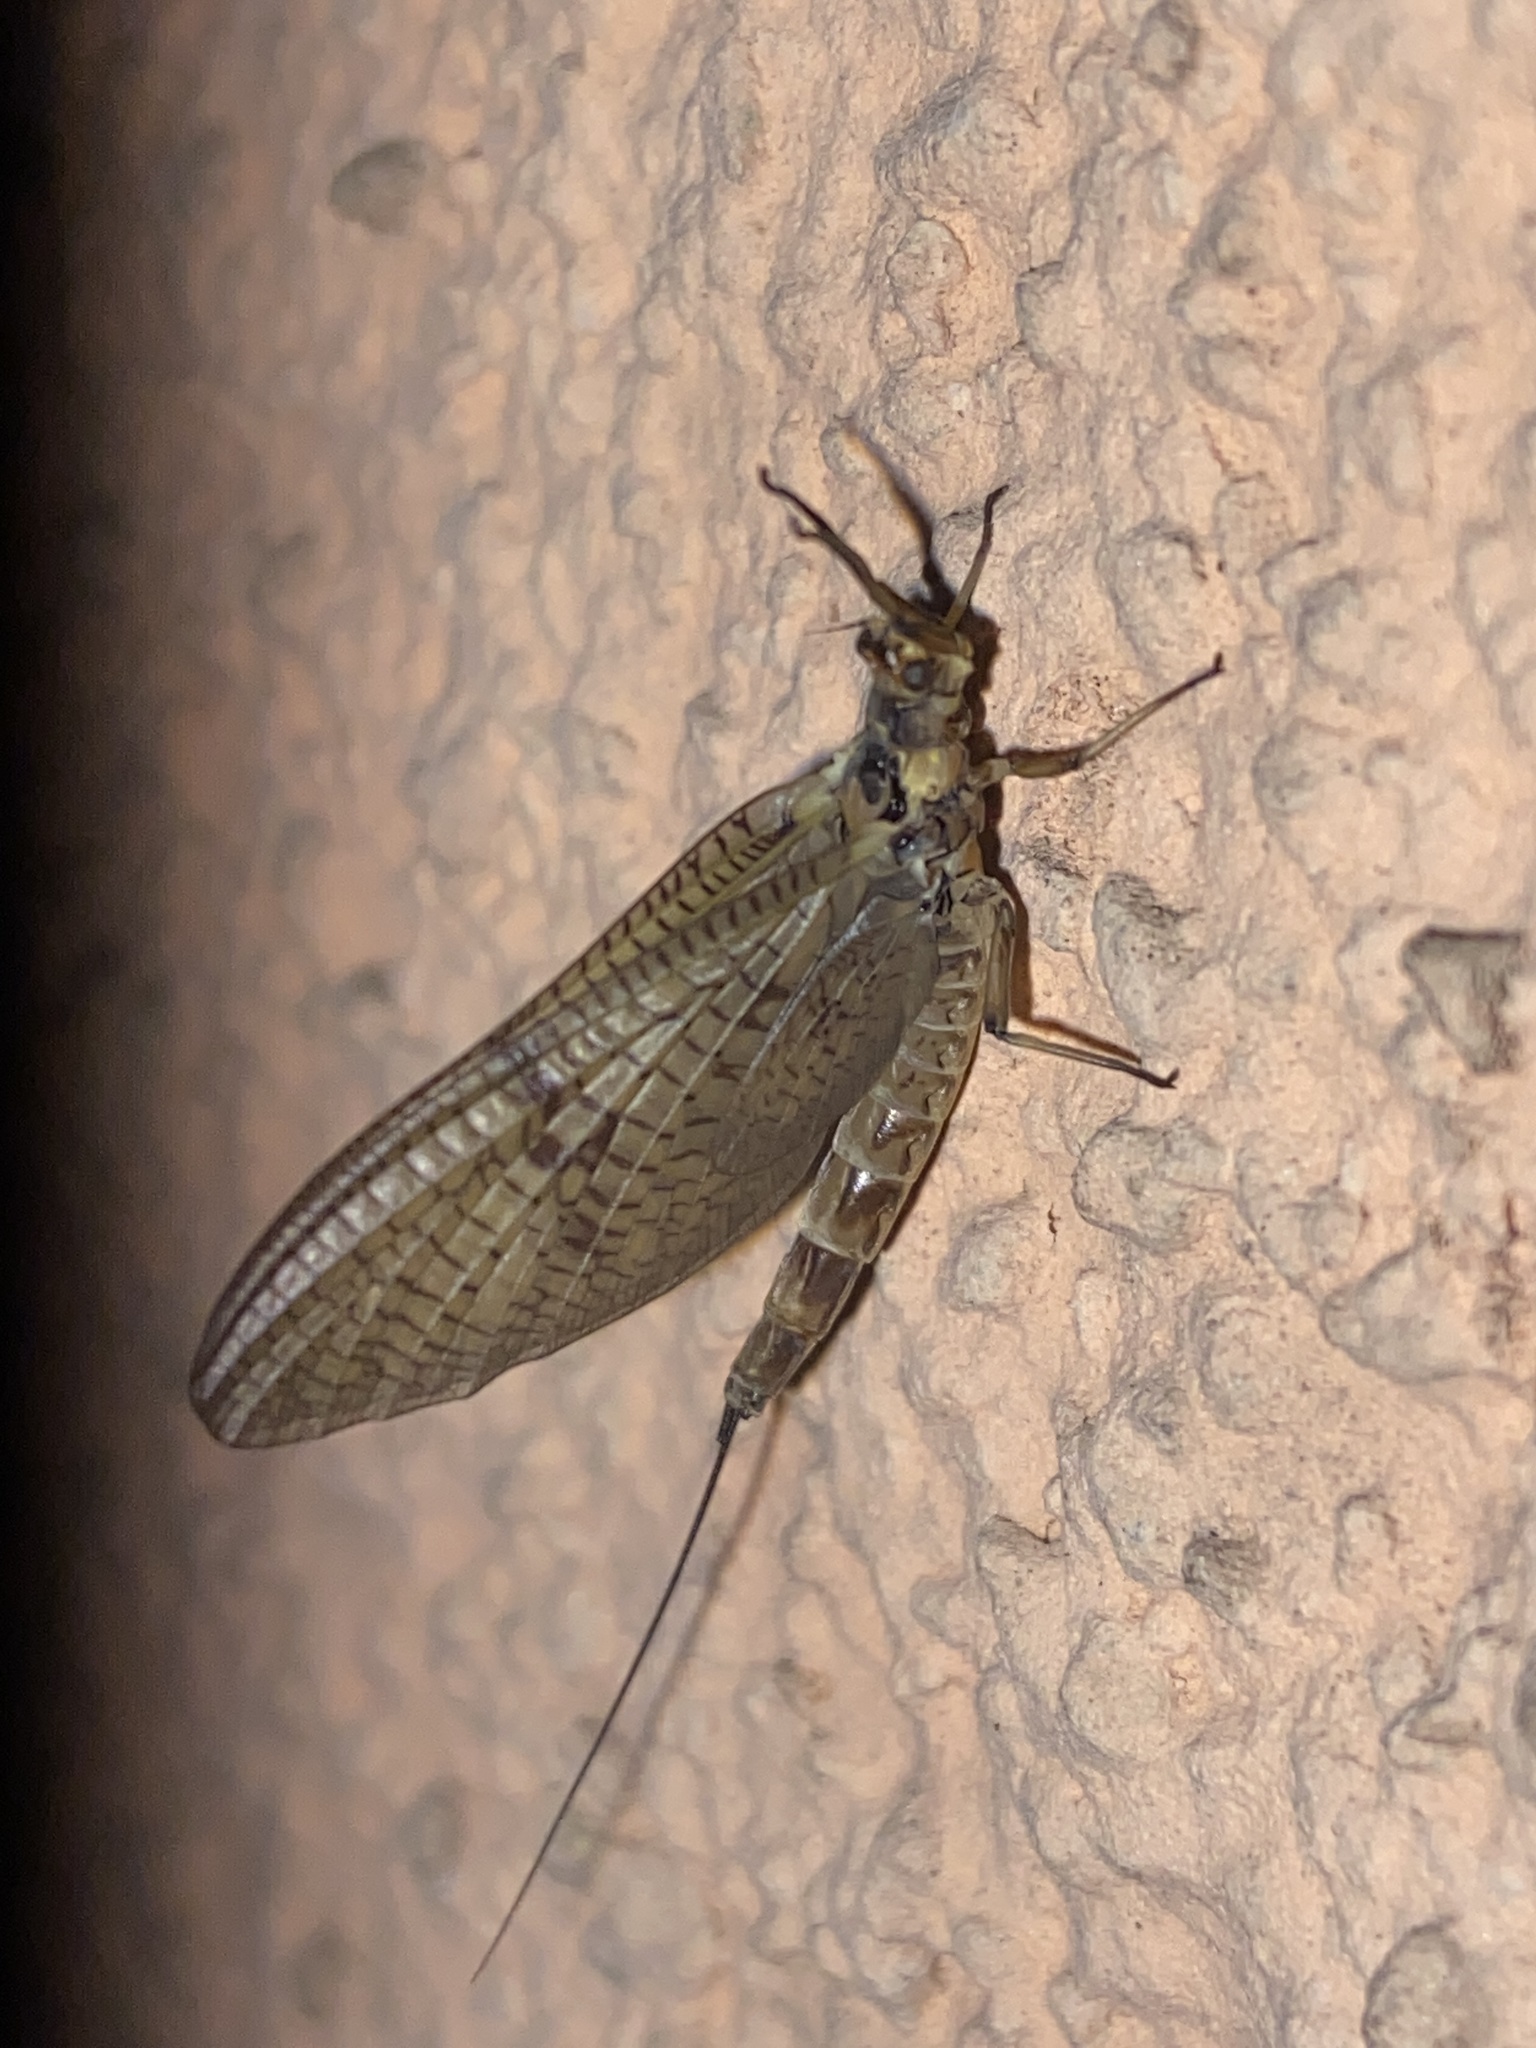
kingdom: Animalia
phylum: Arthropoda
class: Insecta
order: Ephemeroptera
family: Ephemeridae
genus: Ephemera
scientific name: Ephemera danica
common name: Green dun
